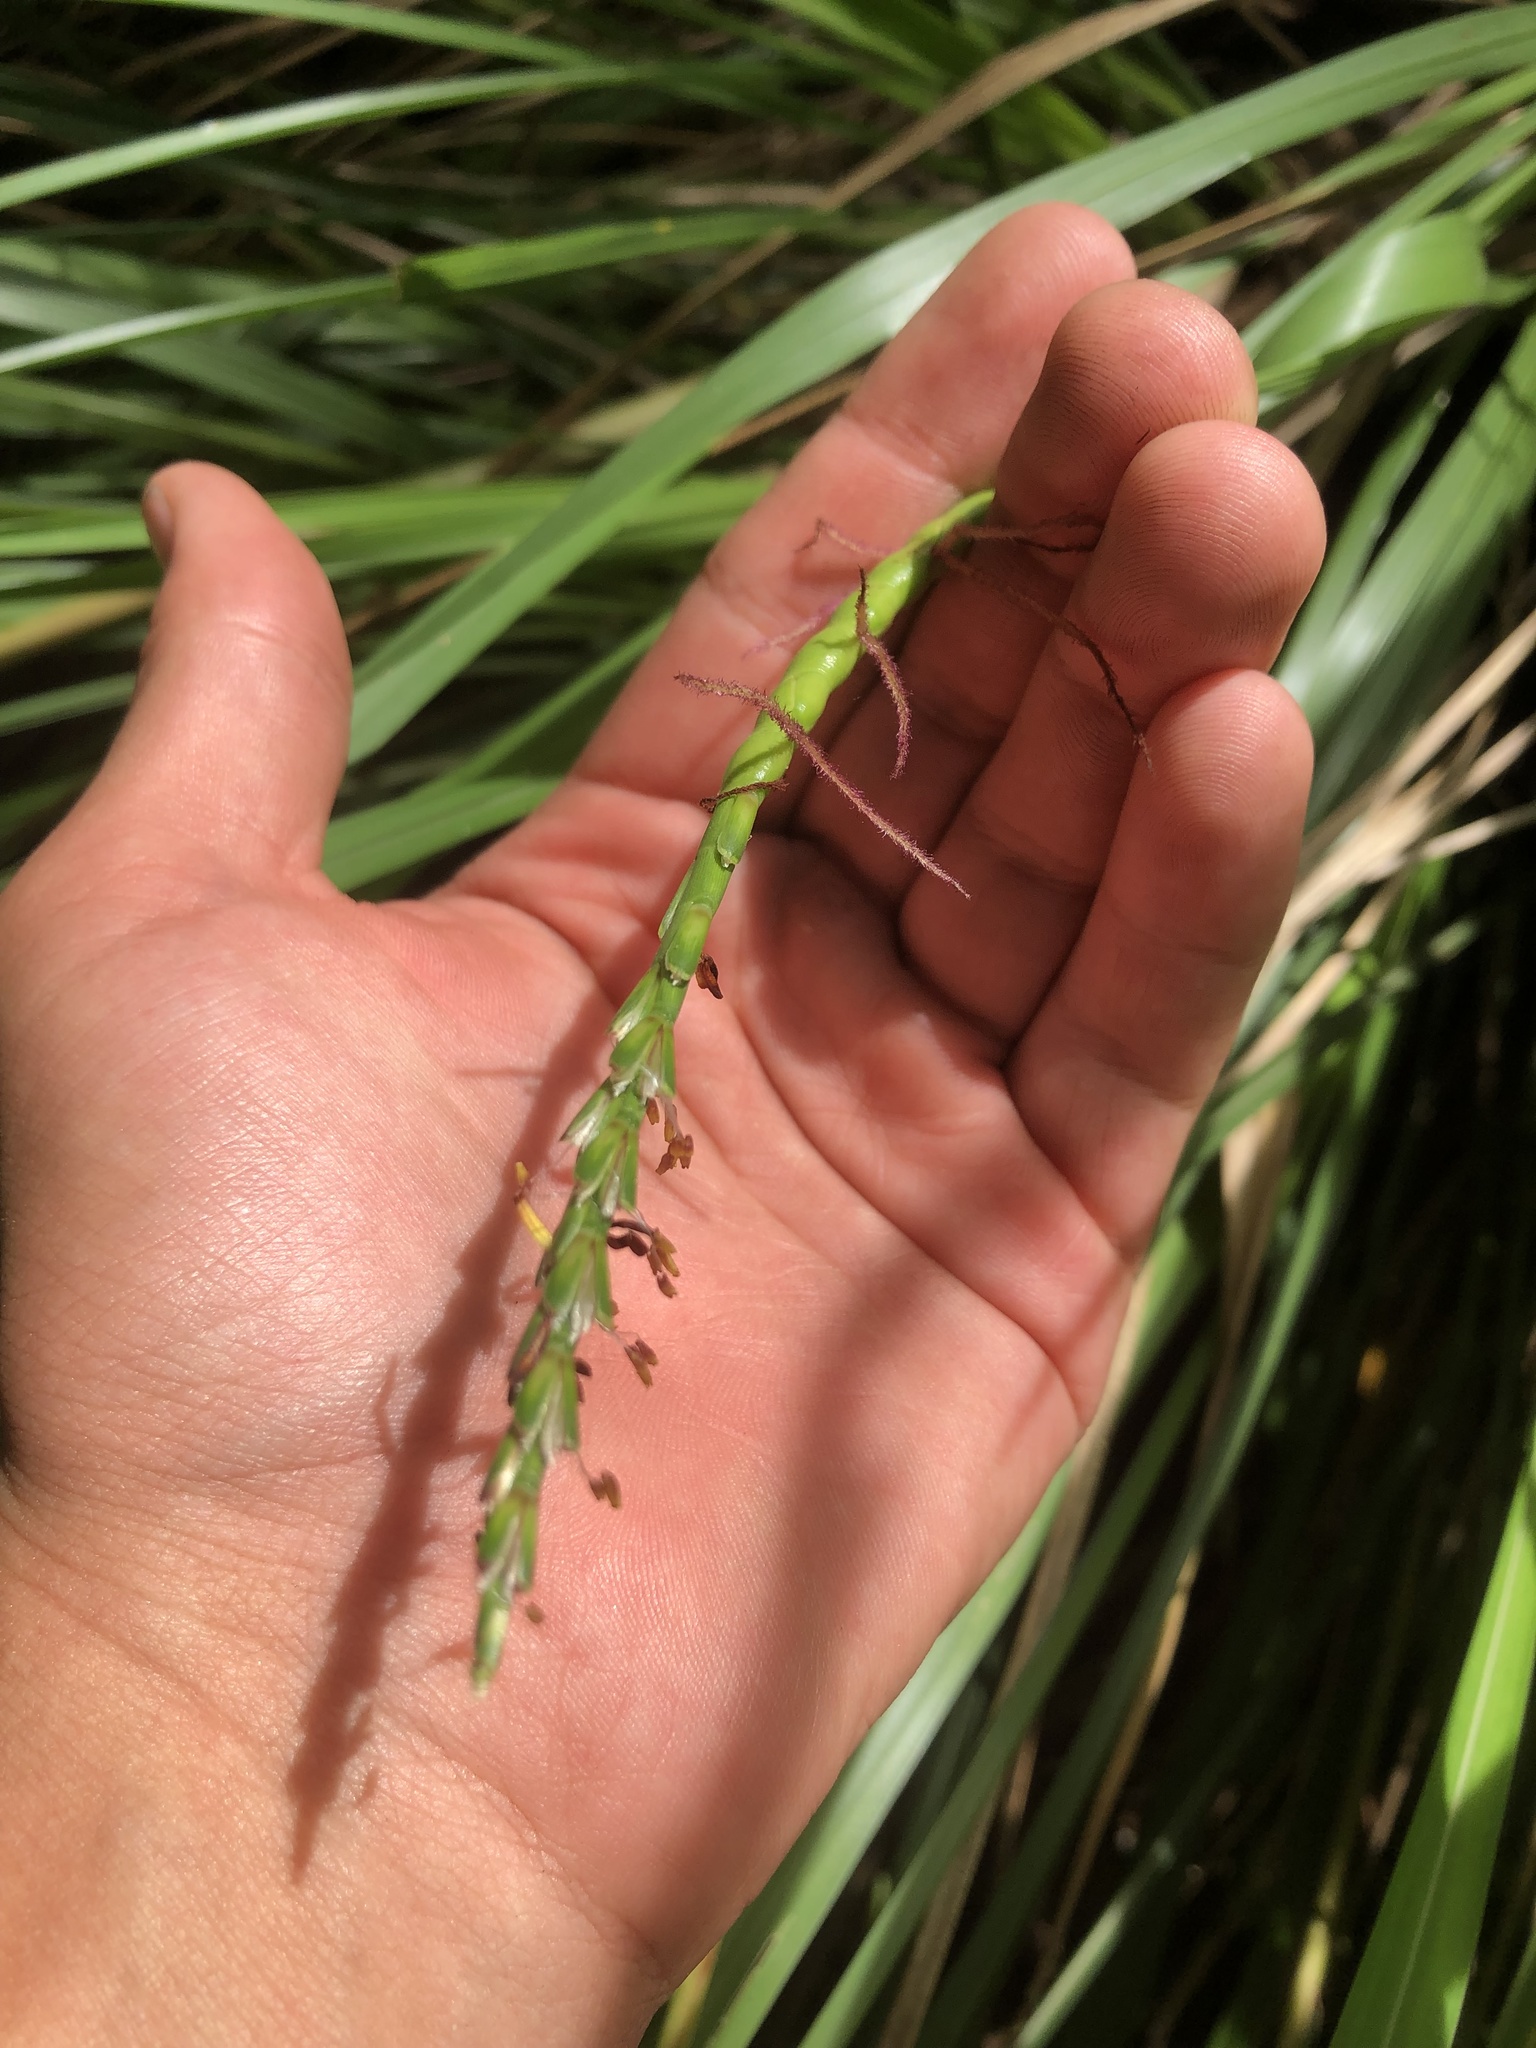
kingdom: Plantae
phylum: Tracheophyta
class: Liliopsida
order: Poales
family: Poaceae
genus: Tripsacum
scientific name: Tripsacum dactyloides
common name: Buffalo-grass
